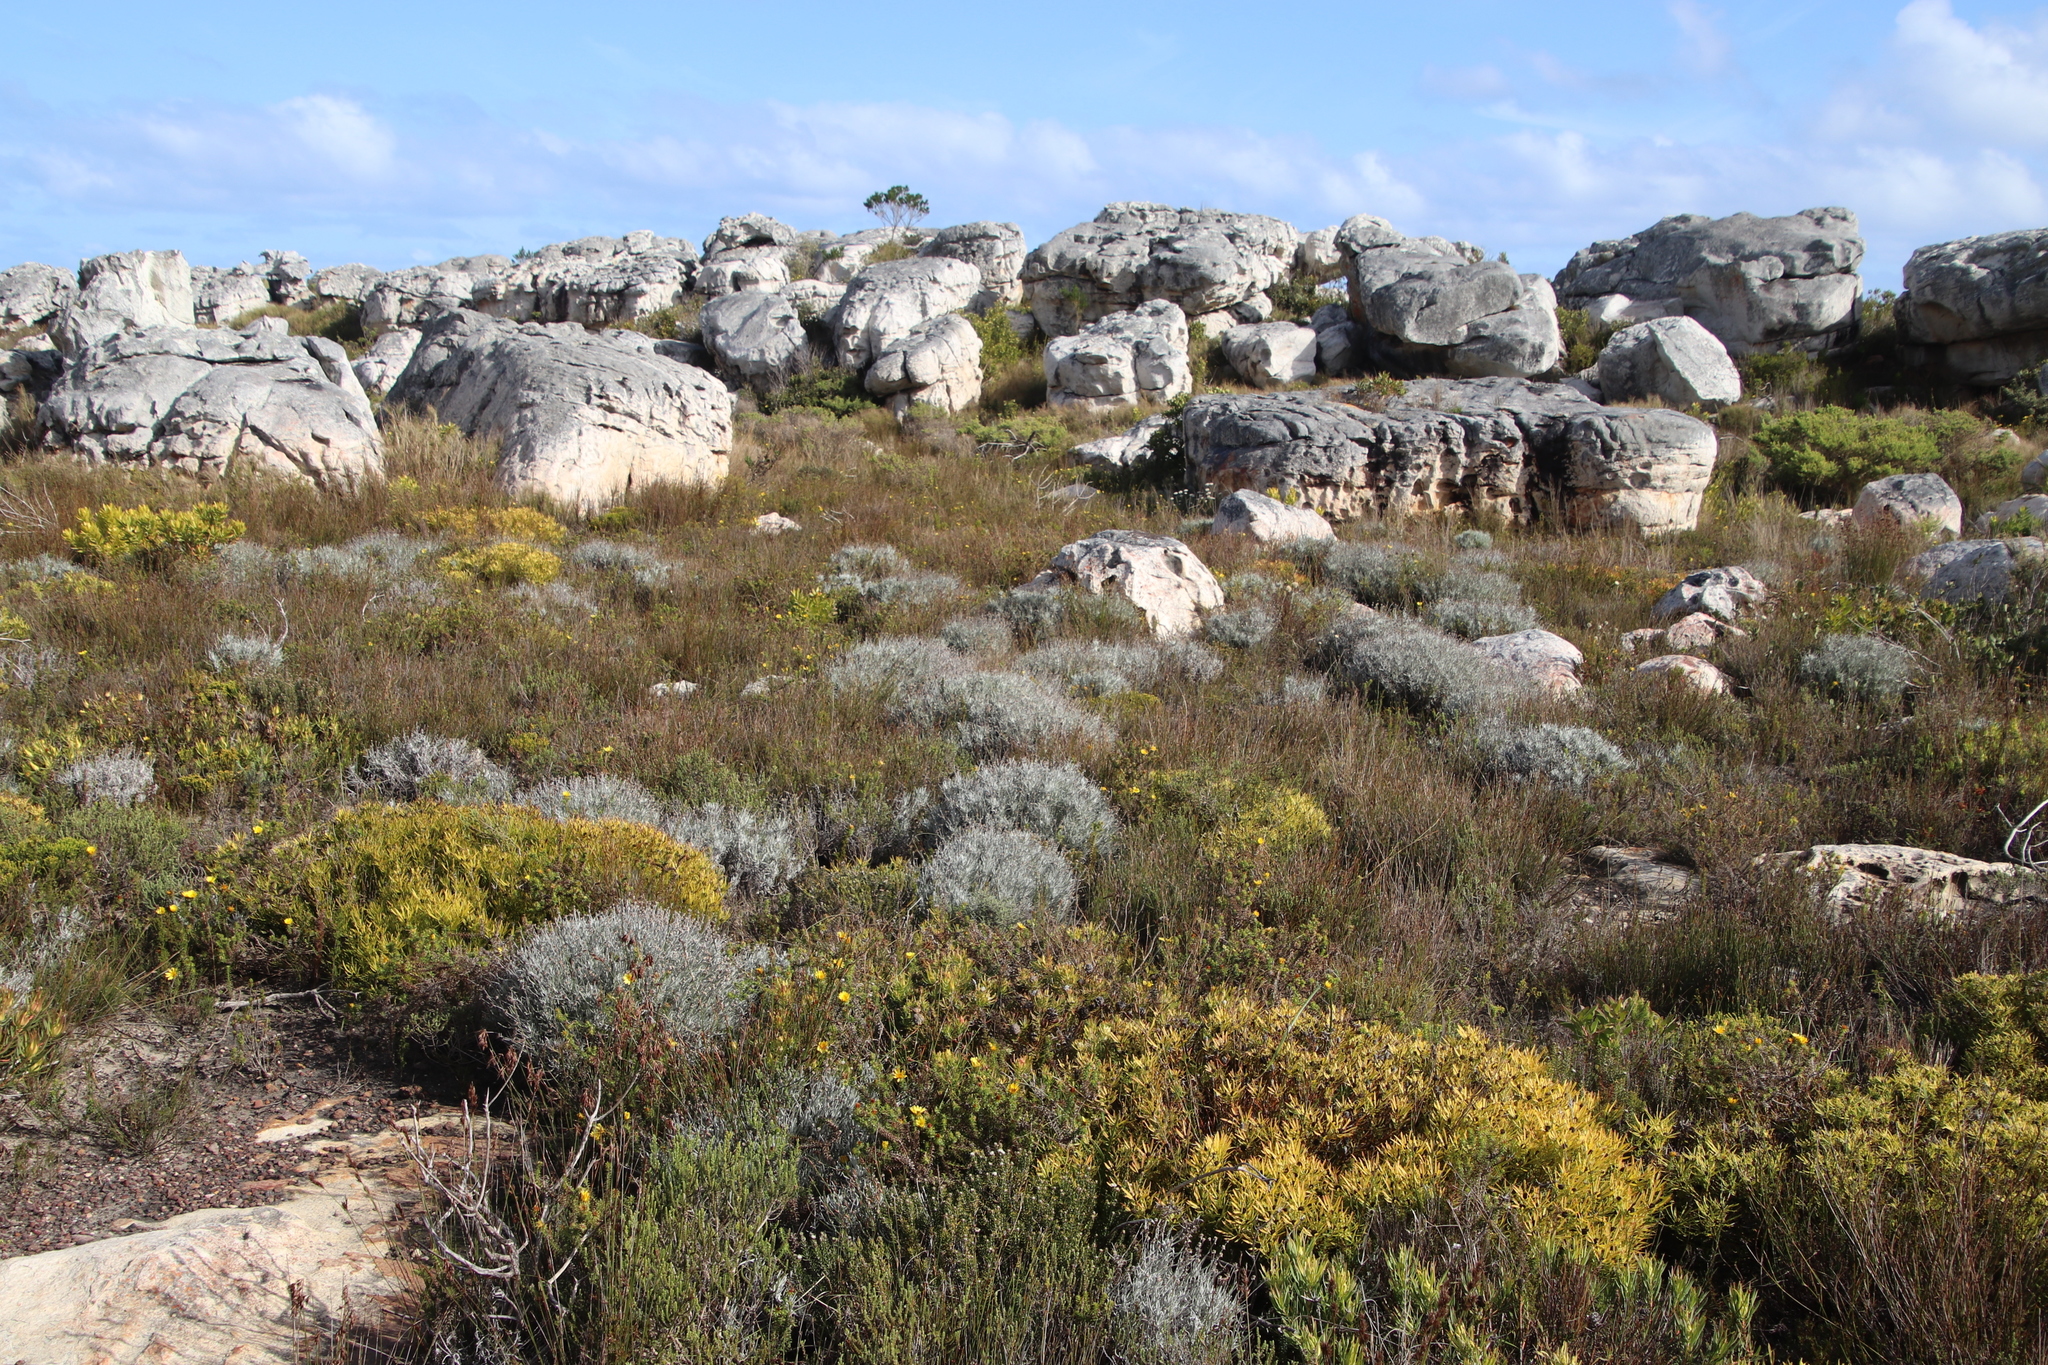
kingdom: Plantae
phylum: Tracheophyta
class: Magnoliopsida
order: Asterales
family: Asteraceae
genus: Syncarpha
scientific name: Syncarpha gnaphaloides
